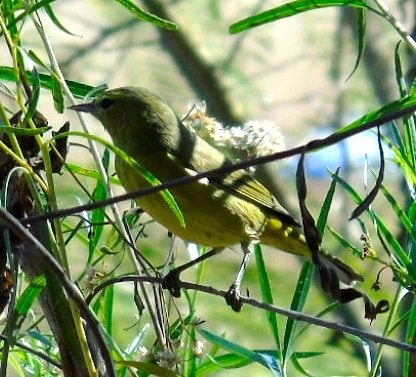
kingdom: Animalia
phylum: Chordata
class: Aves
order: Passeriformes
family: Parulidae
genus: Leiothlypis
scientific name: Leiothlypis celata
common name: Orange-crowned warbler
